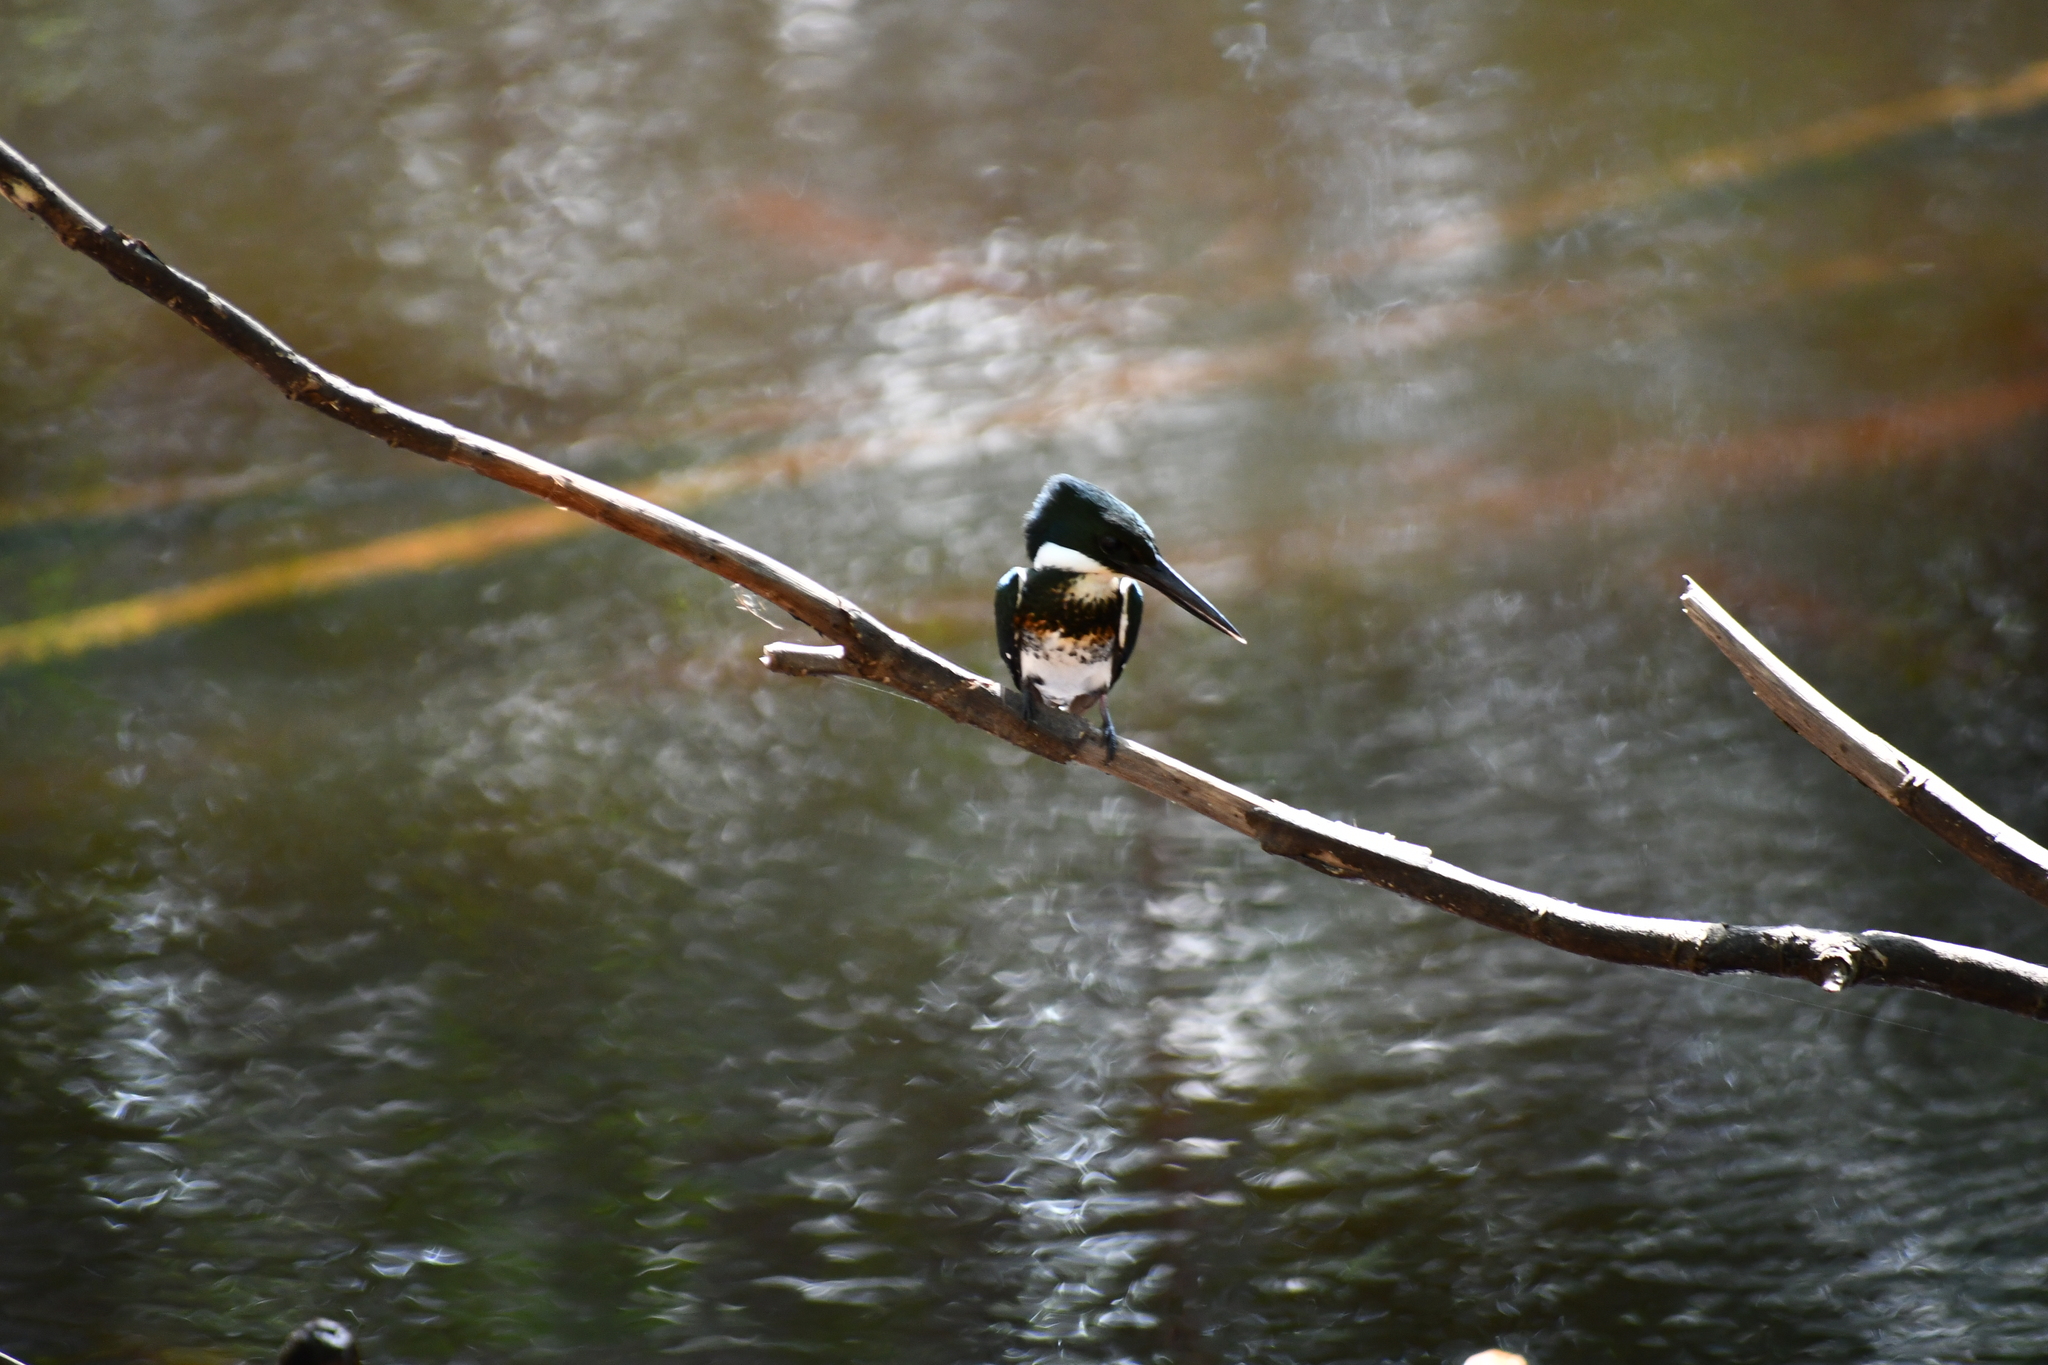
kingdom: Animalia
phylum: Chordata
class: Aves
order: Coraciiformes
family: Alcedinidae
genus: Chloroceryle
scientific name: Chloroceryle americana
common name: Green kingfisher
